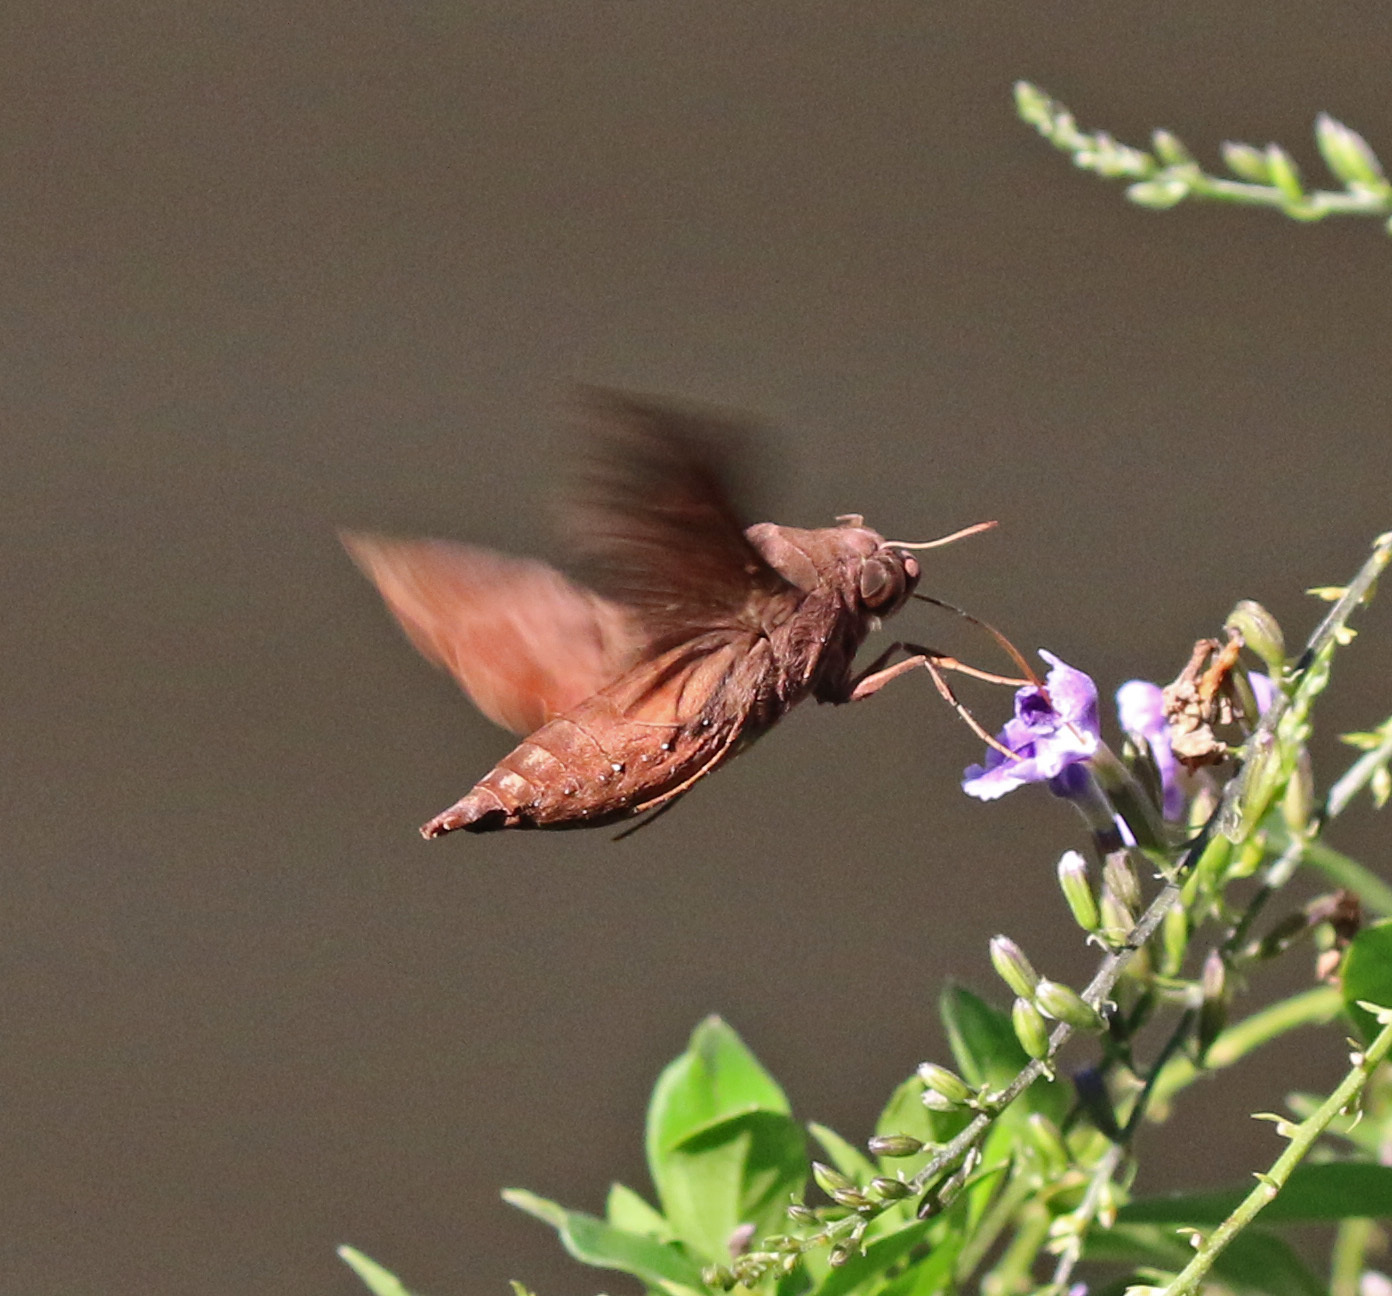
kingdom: Animalia
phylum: Arthropoda
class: Insecta
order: Lepidoptera
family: Sphingidae
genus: Enyo
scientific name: Enyo lugubris
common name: Mournful sphinx
